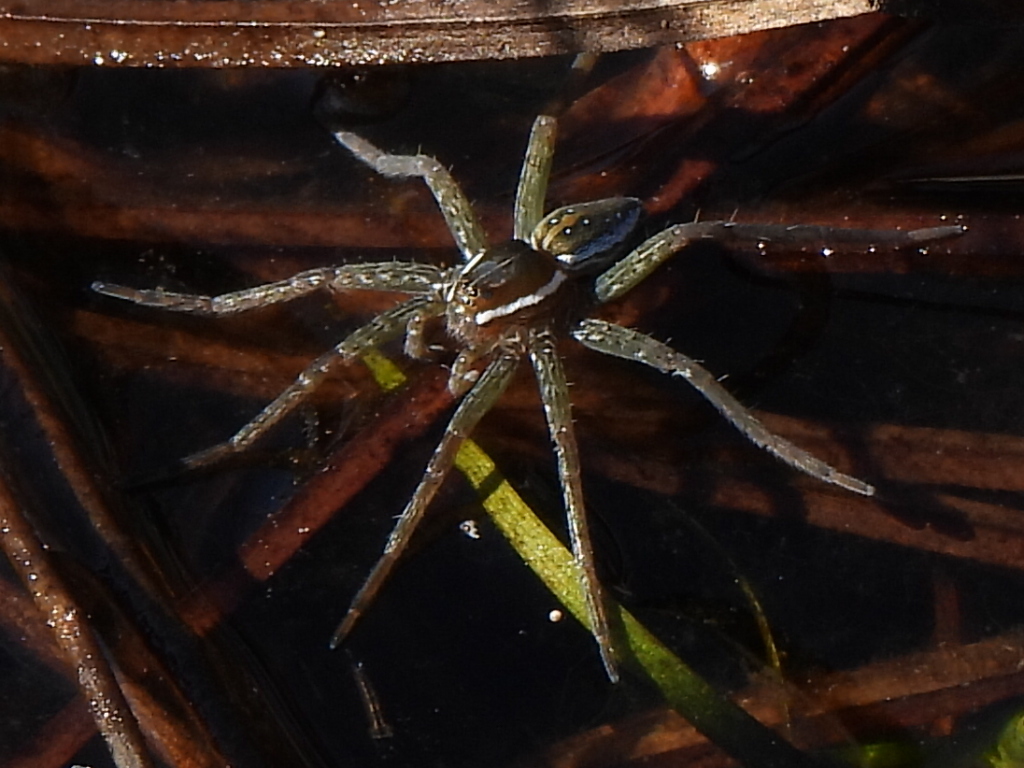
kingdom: Animalia
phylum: Arthropoda
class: Arachnida
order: Araneae
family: Pisauridae
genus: Dolomedes
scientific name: Dolomedes triton
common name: Six-spotted fishing spider
